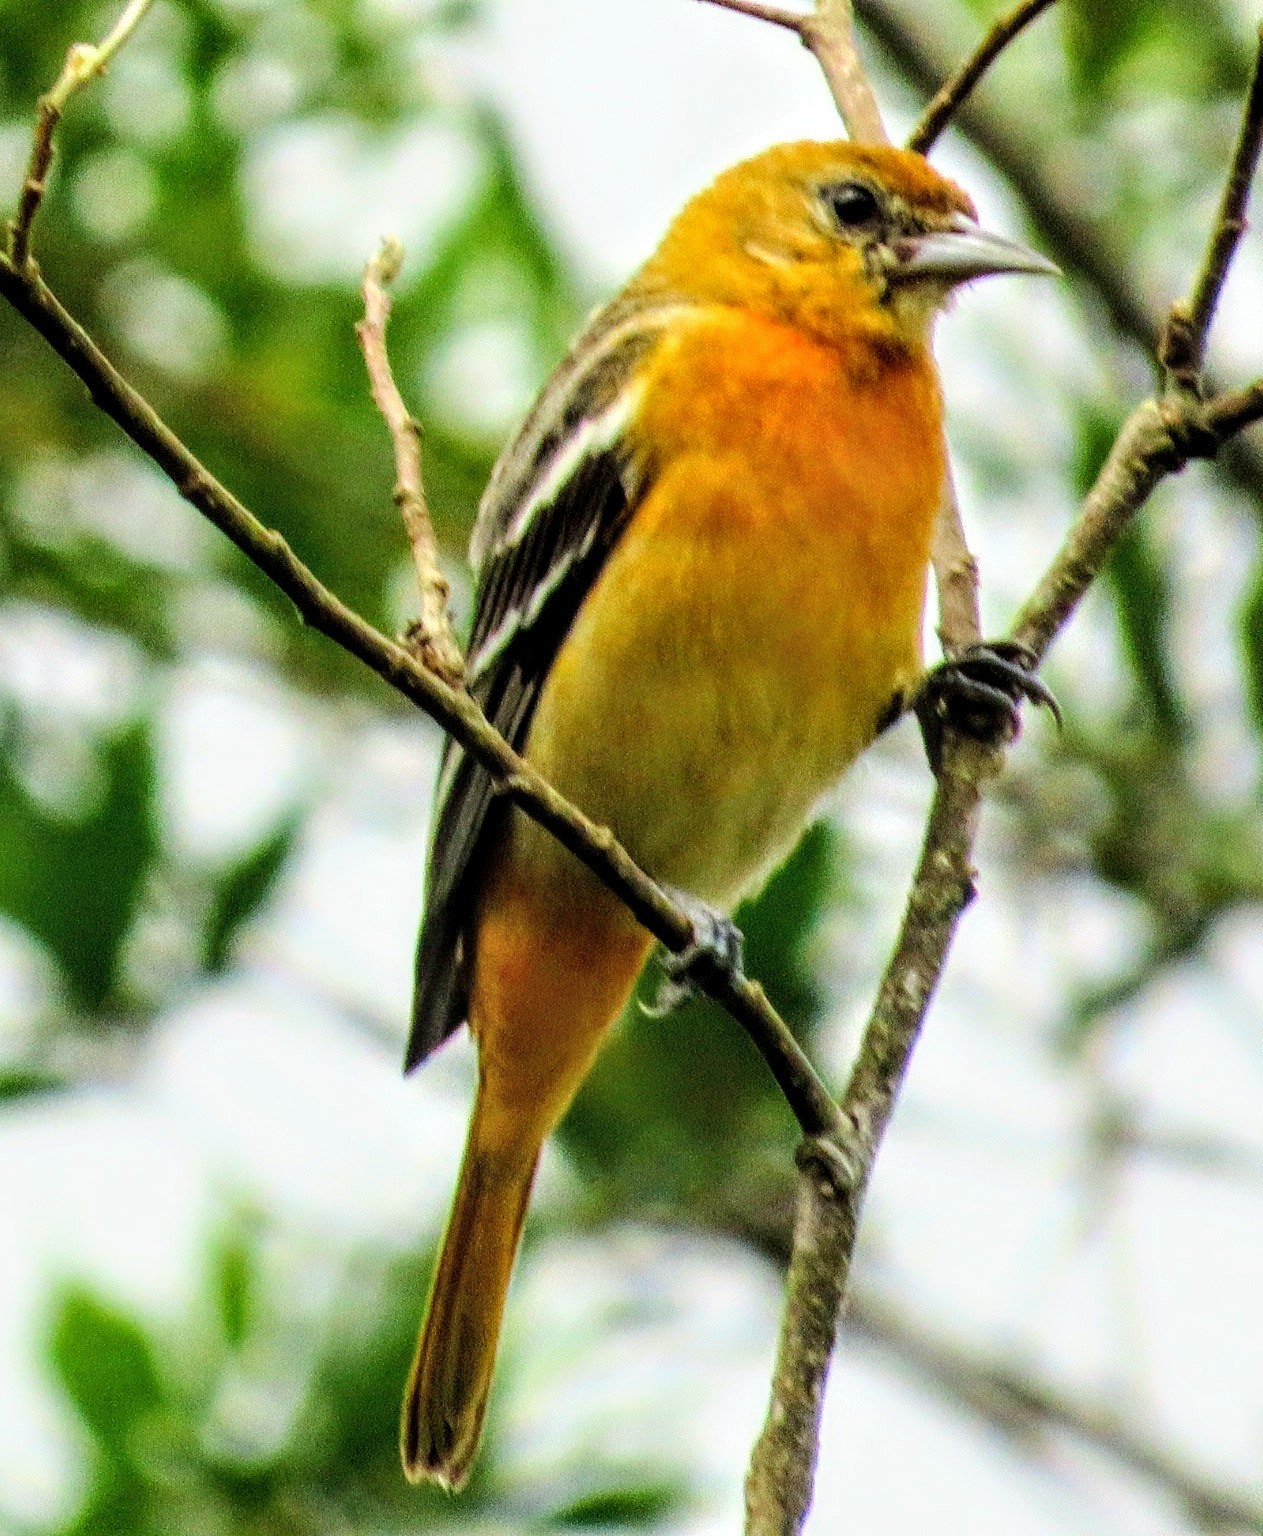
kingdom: Animalia
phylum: Chordata
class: Aves
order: Passeriformes
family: Icteridae
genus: Icterus
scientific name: Icterus galbula
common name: Baltimore oriole
